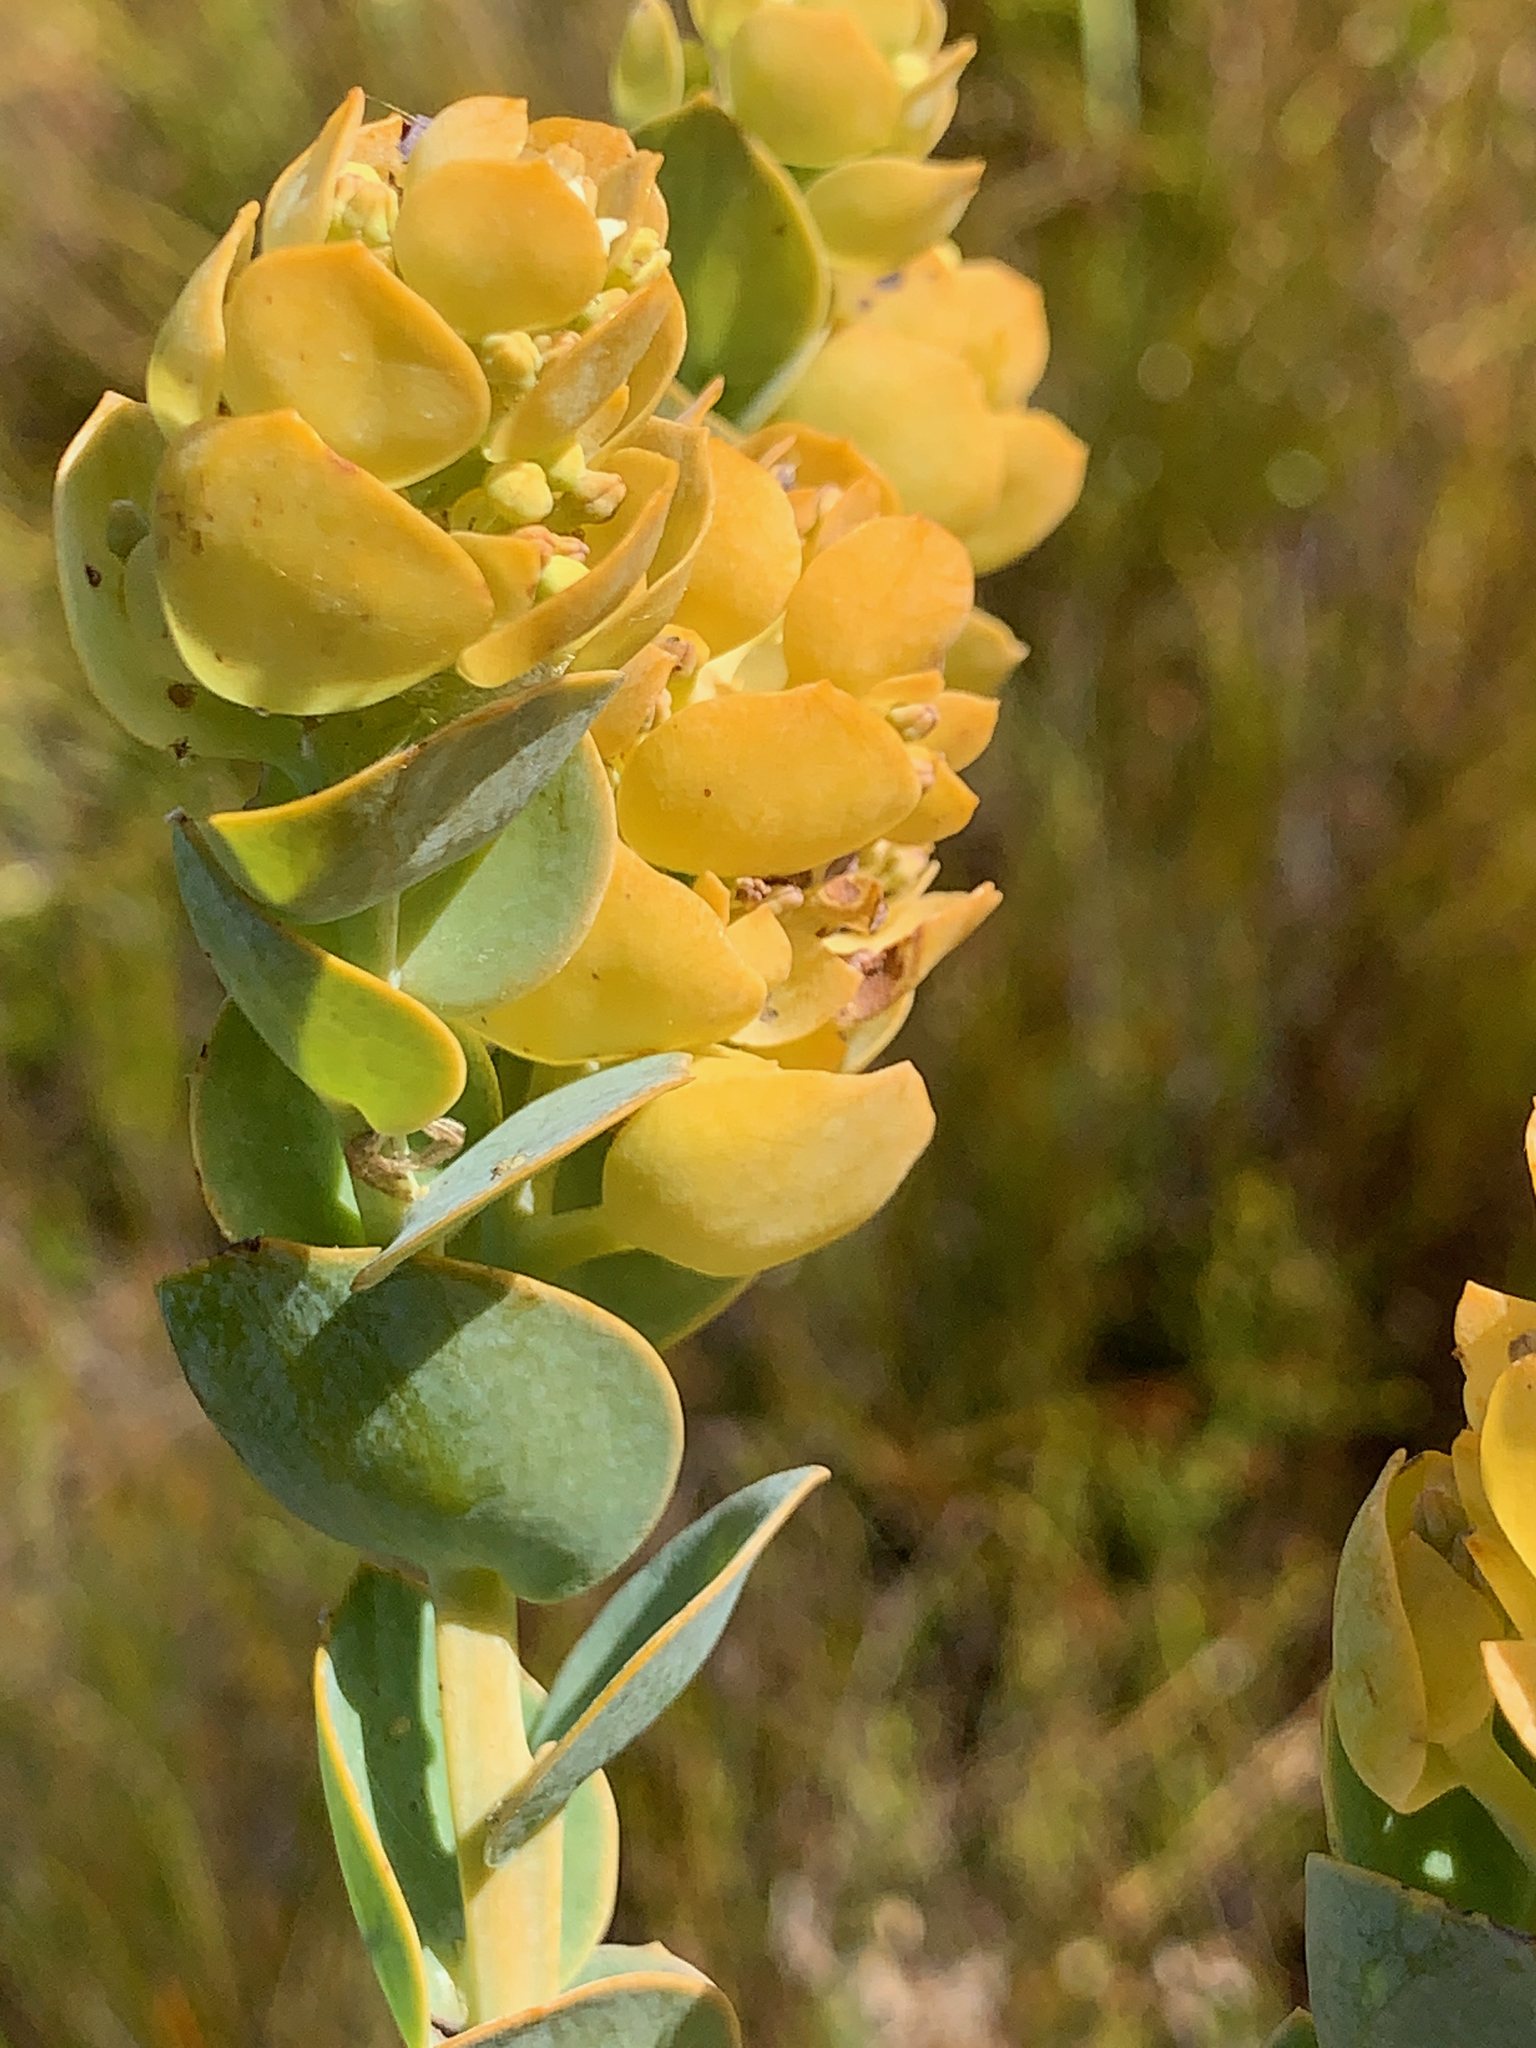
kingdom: Plantae
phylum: Tracheophyta
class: Magnoliopsida
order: Santalales
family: Thesiaceae
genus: Thesium
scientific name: Thesium euphorbioides
